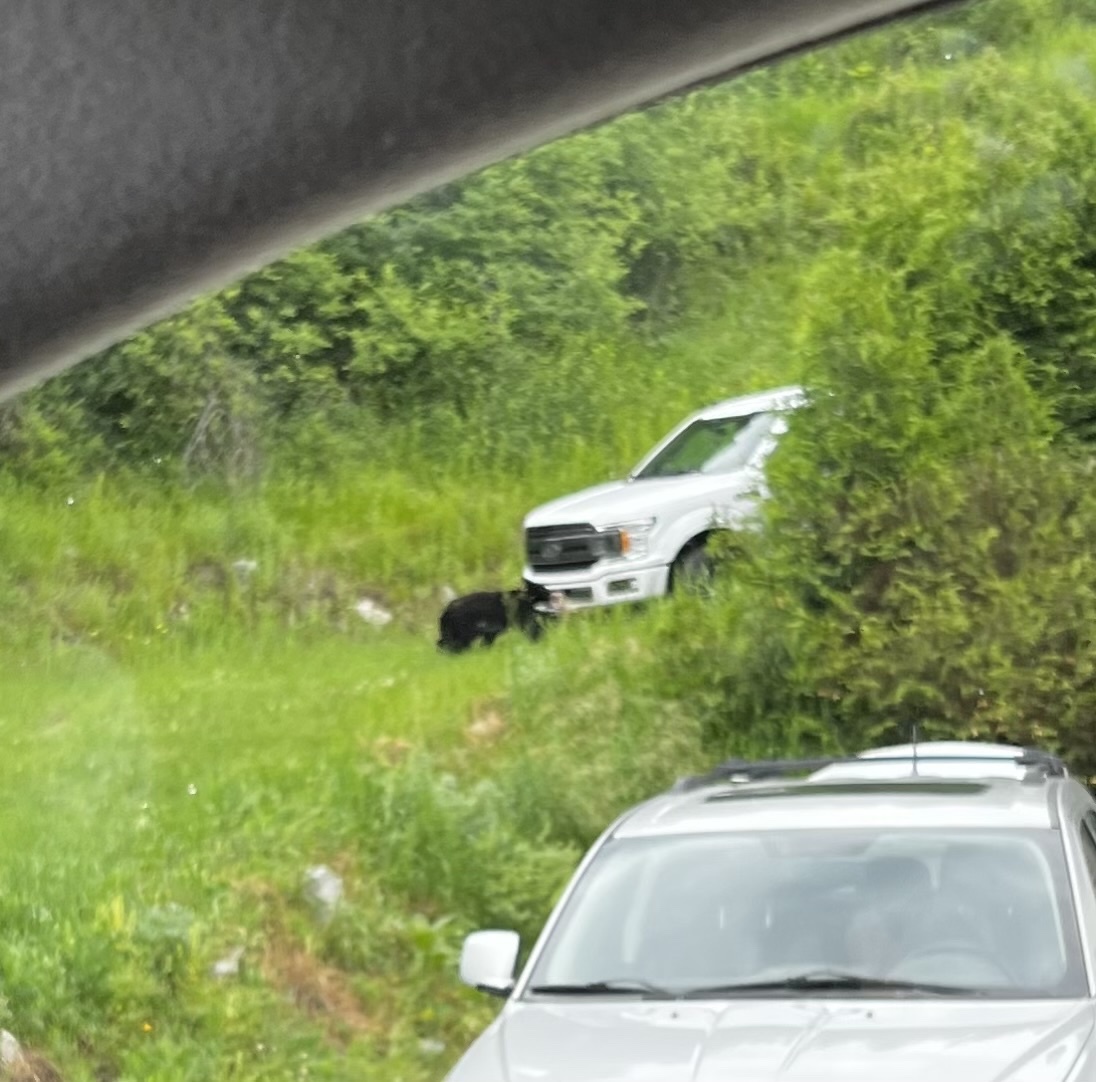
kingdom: Animalia
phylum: Chordata
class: Mammalia
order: Carnivora
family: Ursidae
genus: Ursus
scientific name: Ursus americanus
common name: American black bear
